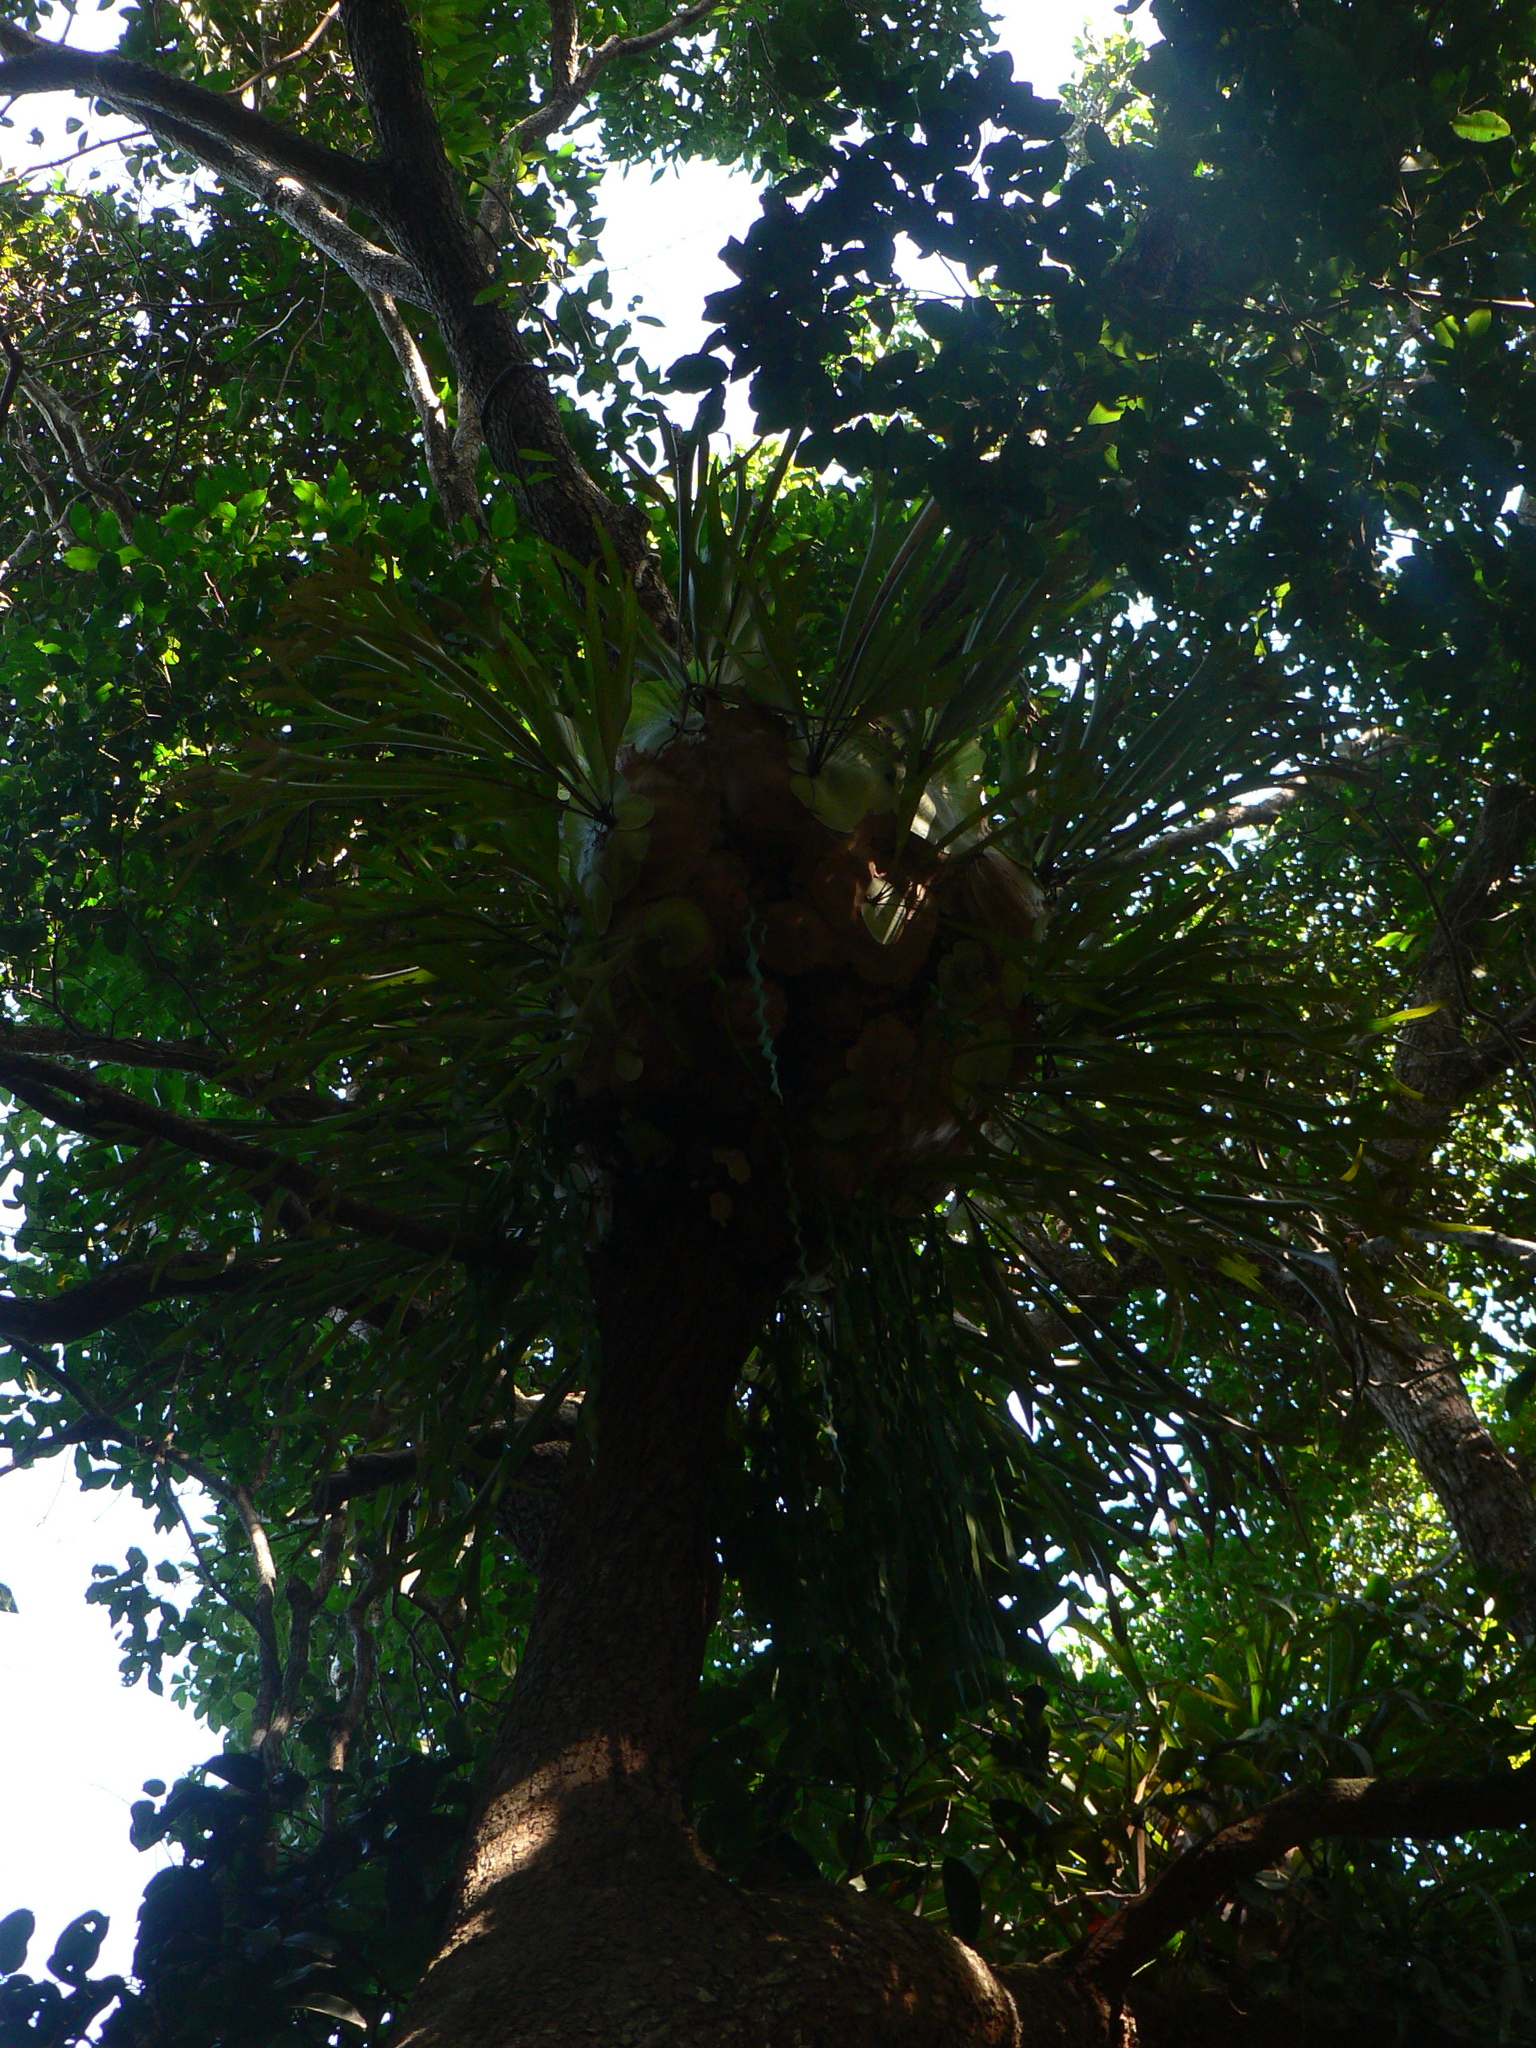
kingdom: Plantae
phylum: Tracheophyta
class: Polypodiopsida
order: Polypodiales
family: Polypodiaceae
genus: Platycerium
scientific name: Platycerium bifurcatum
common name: Elkhorn fern
